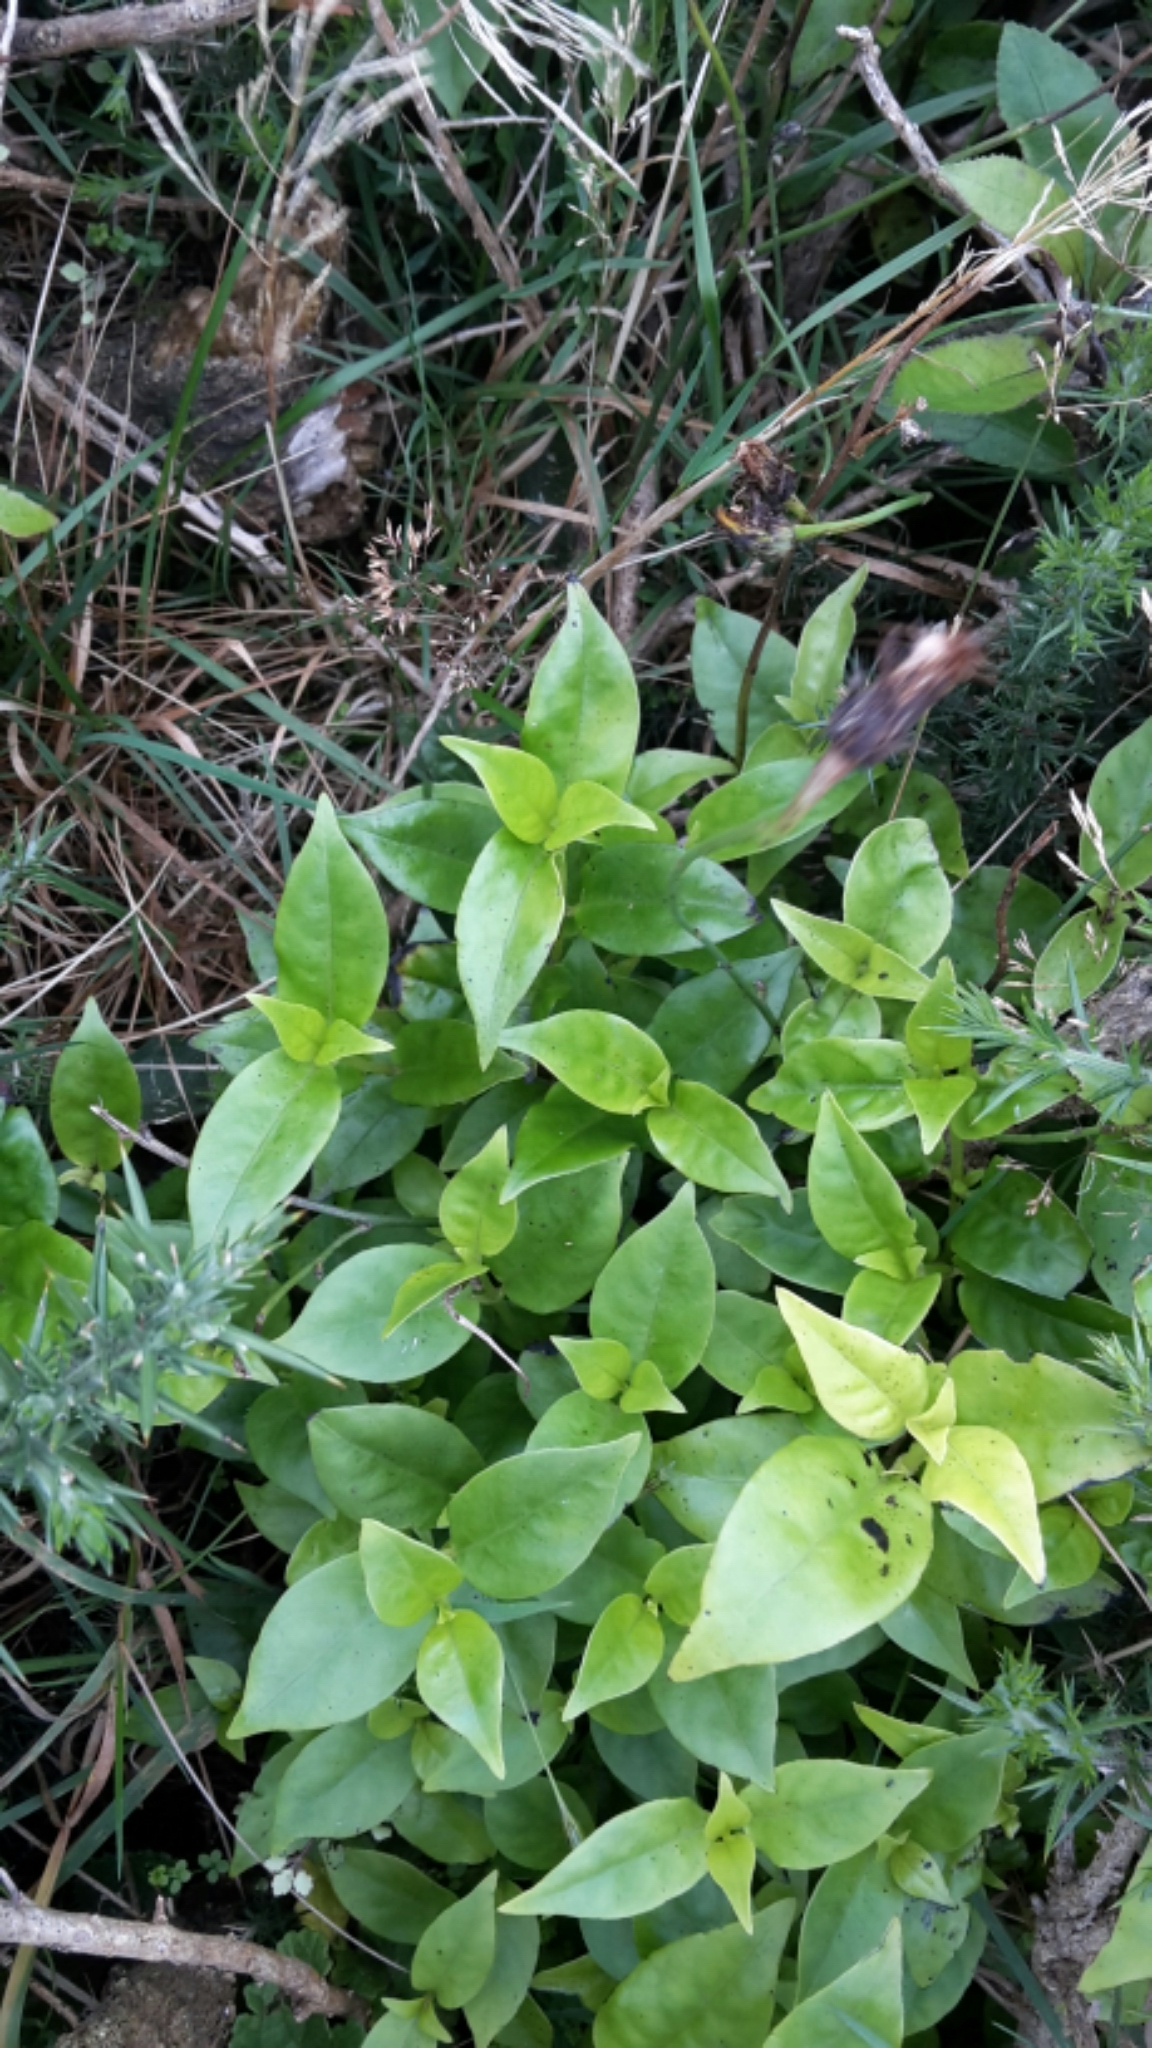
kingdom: Plantae
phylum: Tracheophyta
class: Magnoliopsida
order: Gentianales
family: Loganiaceae
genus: Geniostoma
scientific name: Geniostoma ligustrifolium
